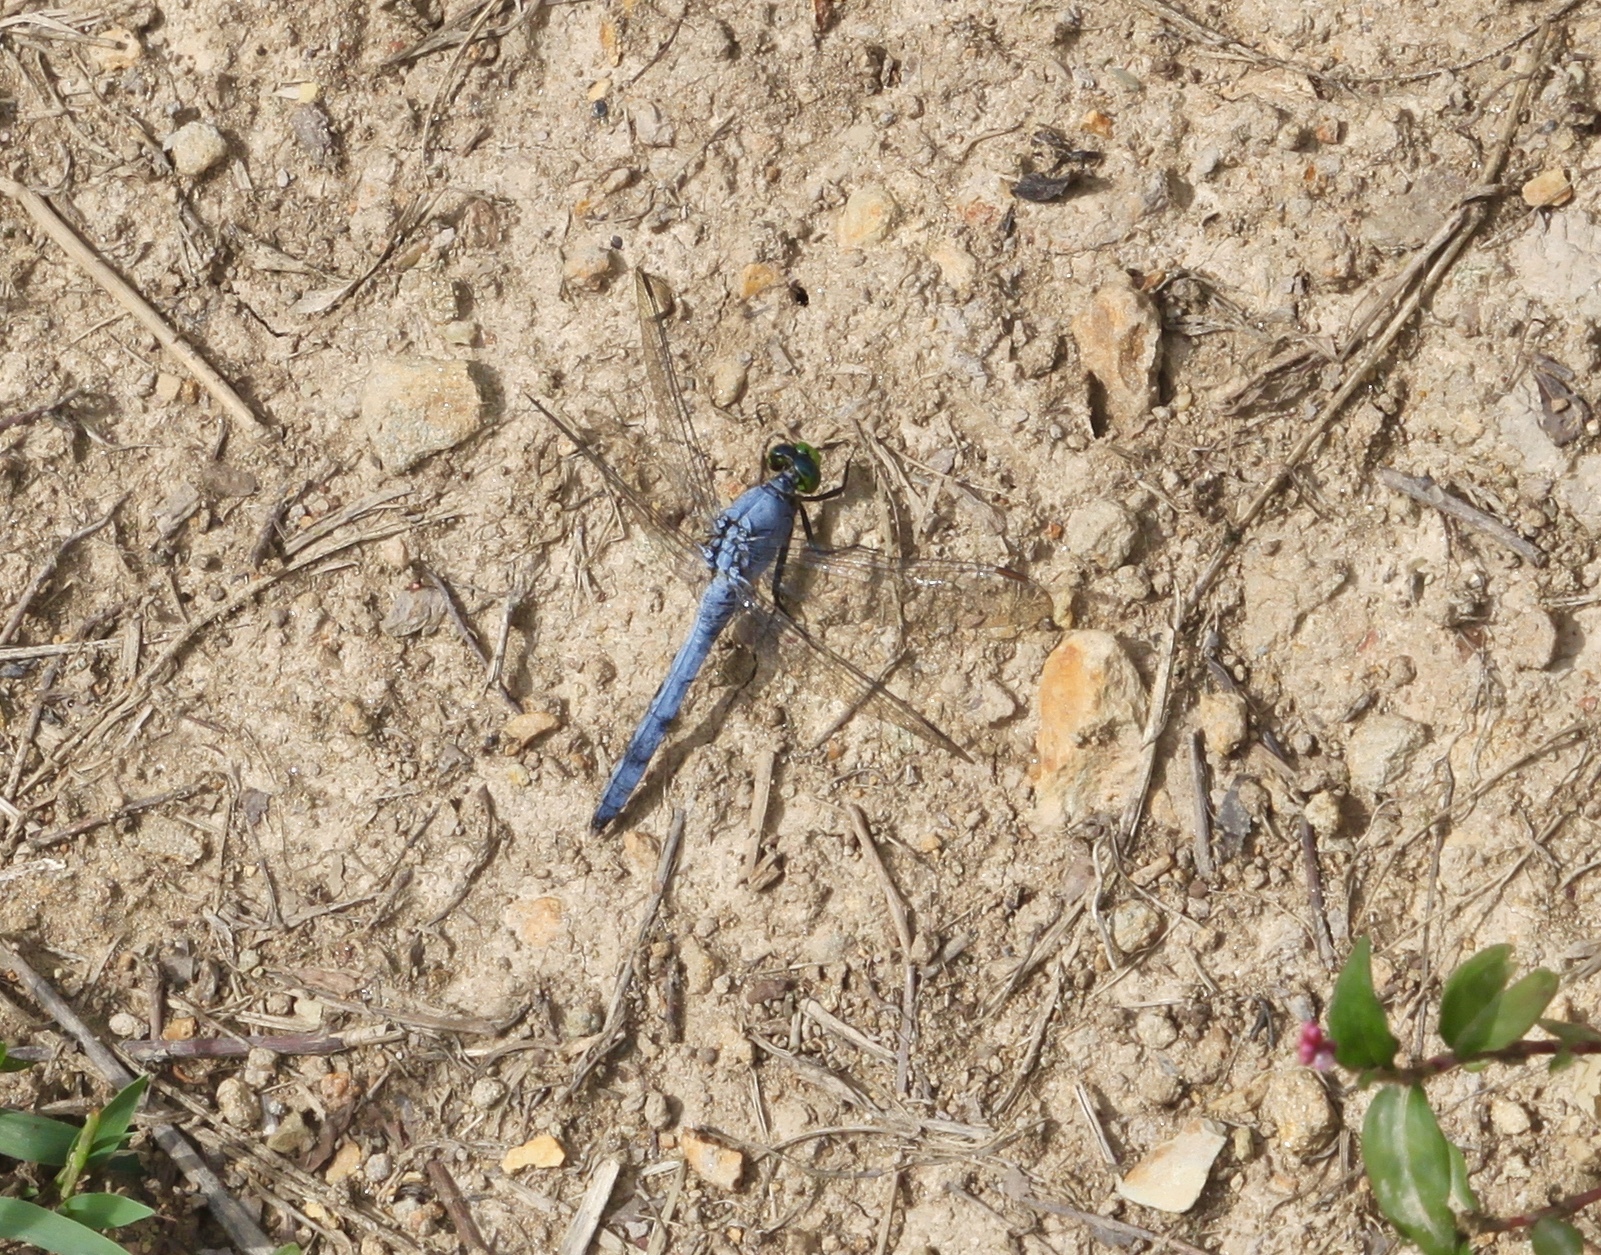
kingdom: Animalia
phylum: Arthropoda
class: Insecta
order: Odonata
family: Libellulidae
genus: Erythemis
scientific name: Erythemis simplicicollis
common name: Eastern pondhawk
